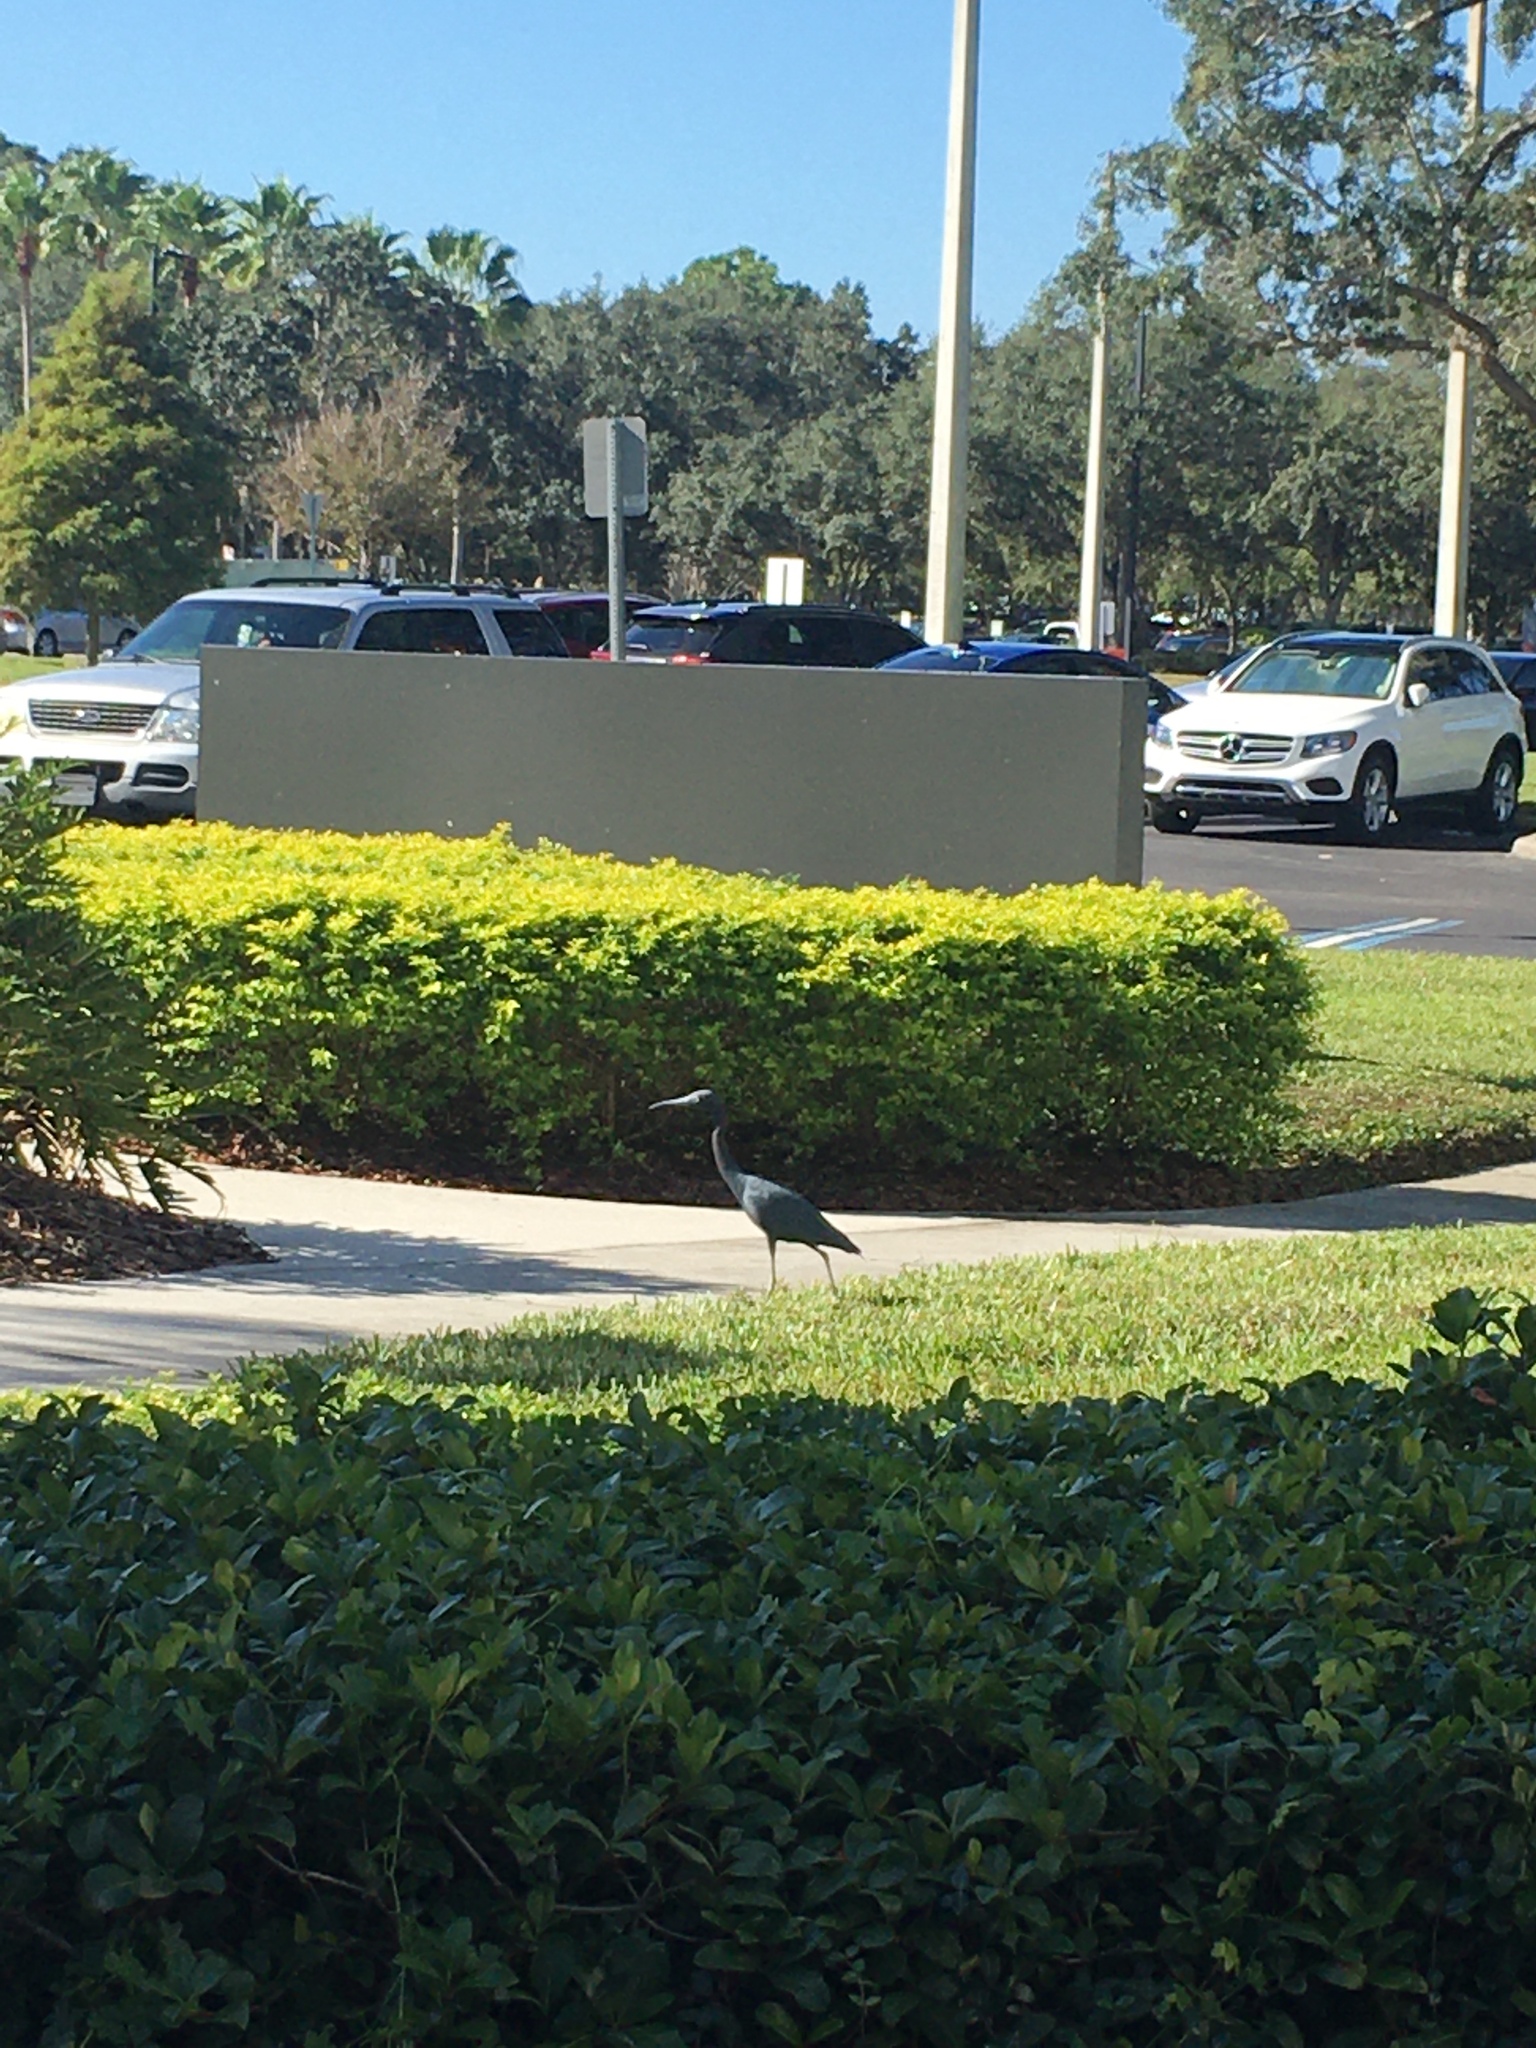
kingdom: Animalia
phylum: Chordata
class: Aves
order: Pelecaniformes
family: Ardeidae
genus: Egretta
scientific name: Egretta caerulea
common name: Little blue heron
